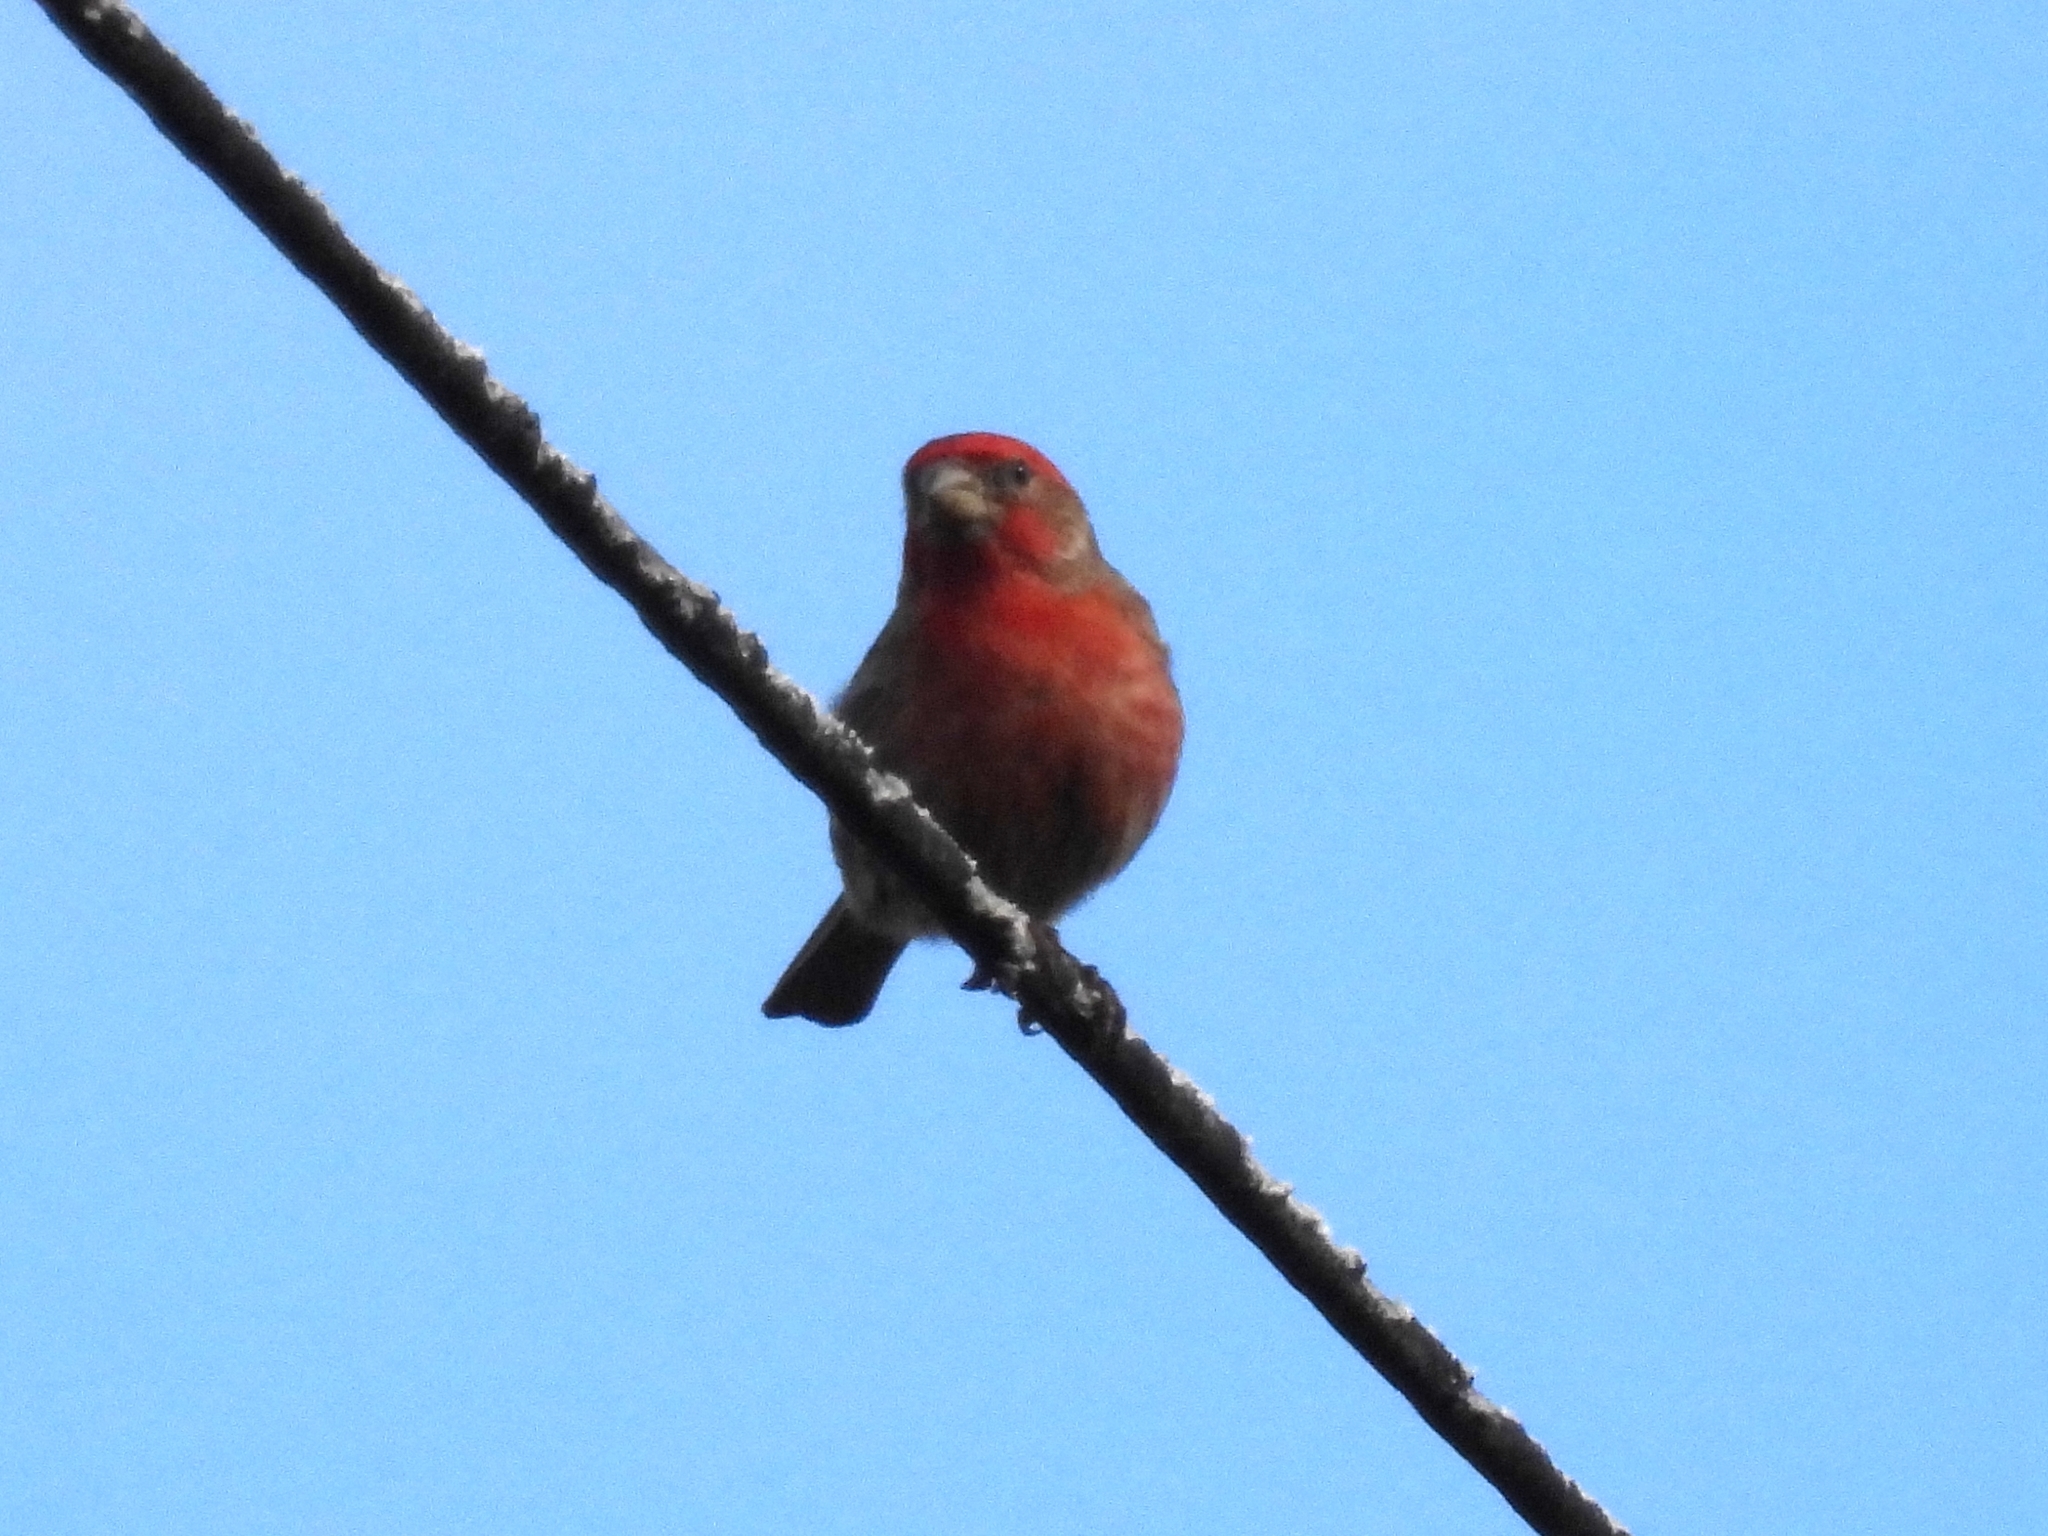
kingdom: Animalia
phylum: Chordata
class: Aves
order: Passeriformes
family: Fringillidae
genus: Haemorhous
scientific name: Haemorhous mexicanus
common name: House finch
